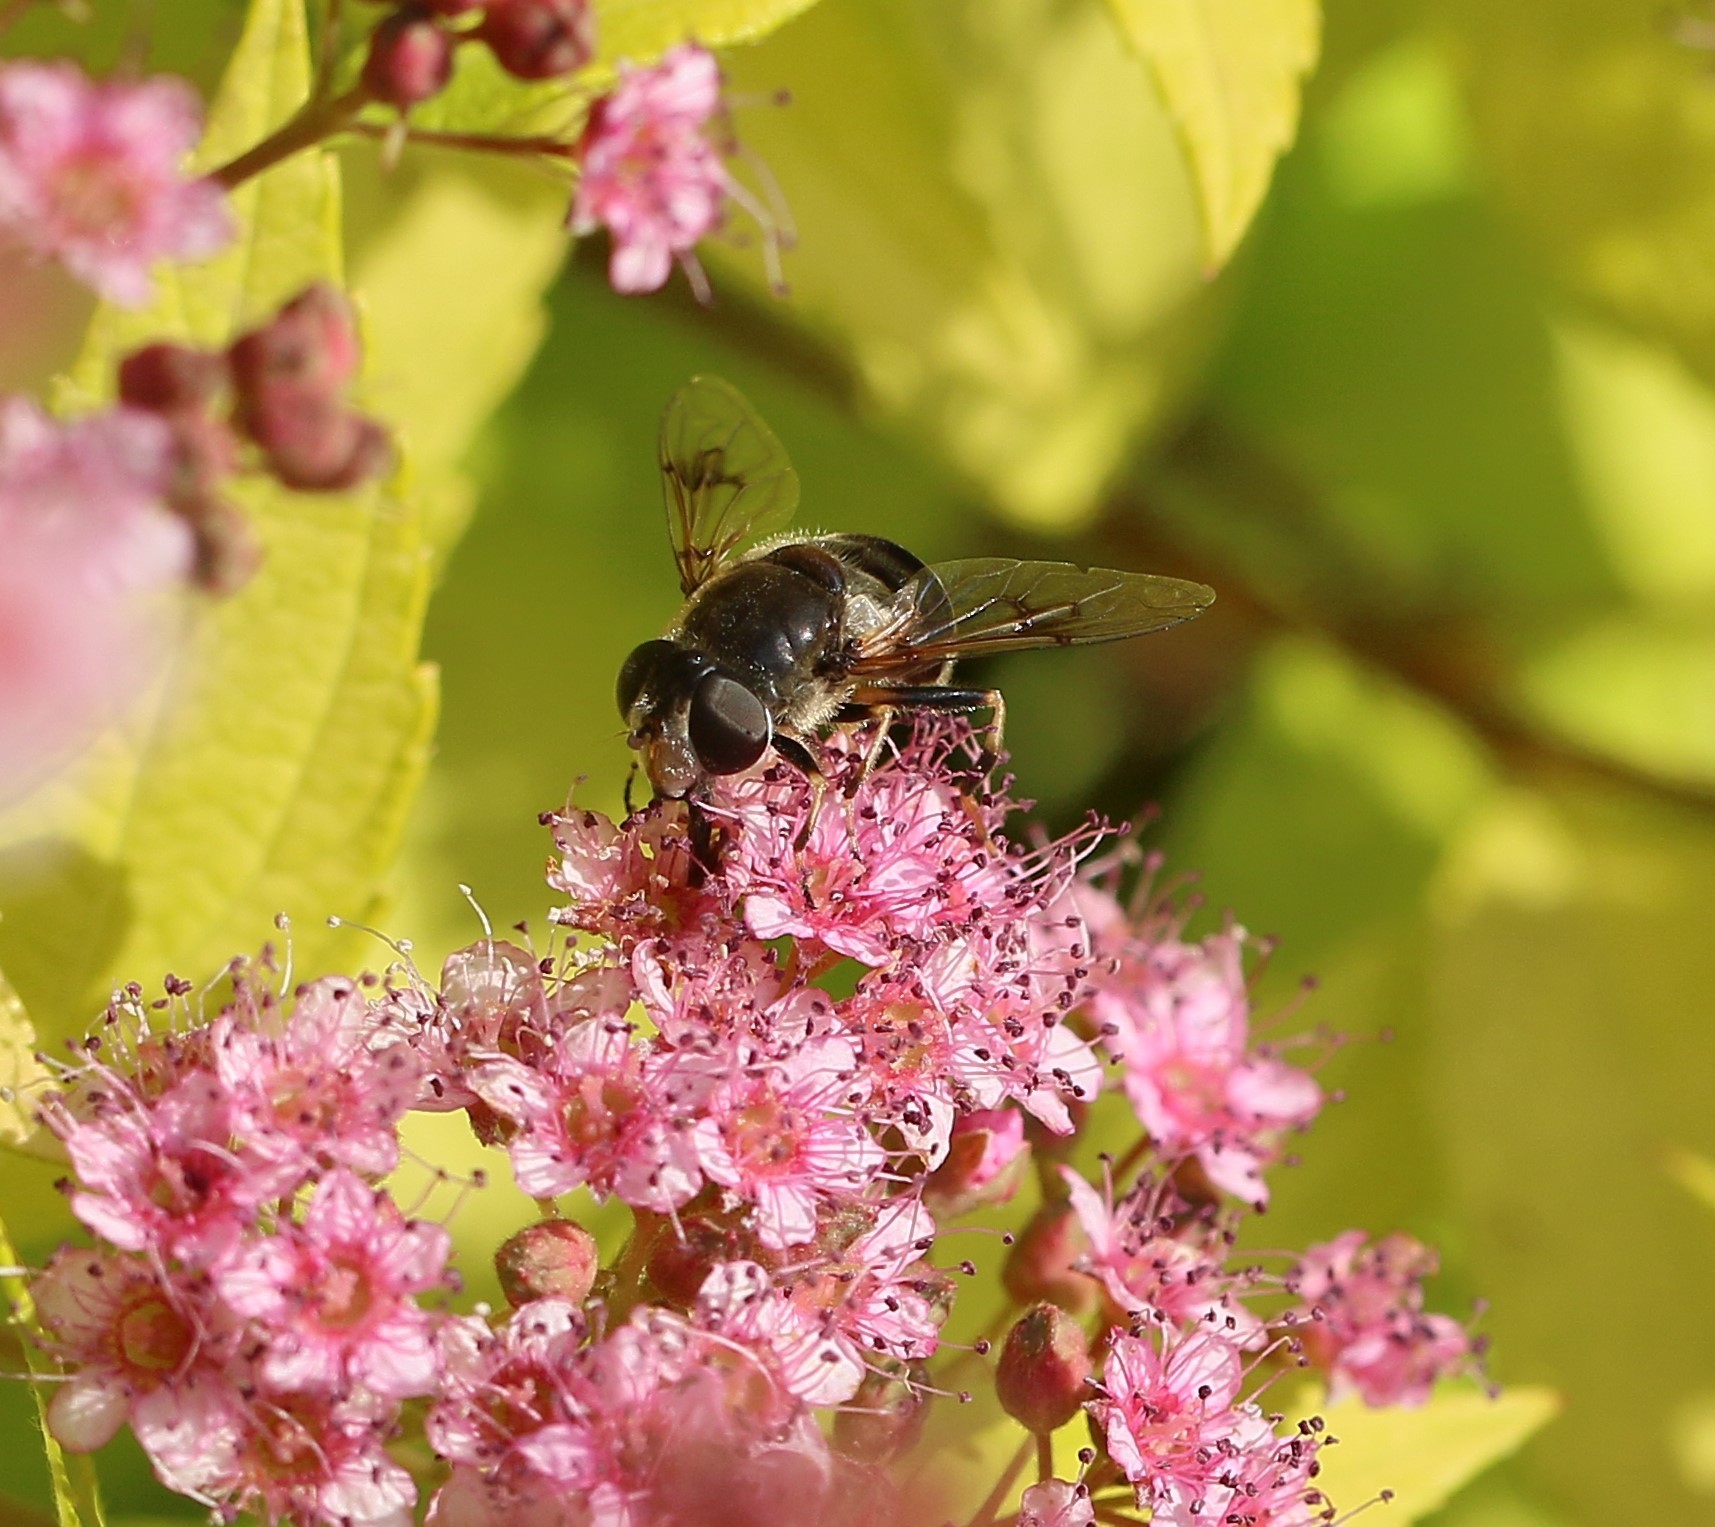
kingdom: Animalia
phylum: Arthropoda
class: Insecta
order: Diptera
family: Syrphidae
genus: Eristalis
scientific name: Eristalis obscura
